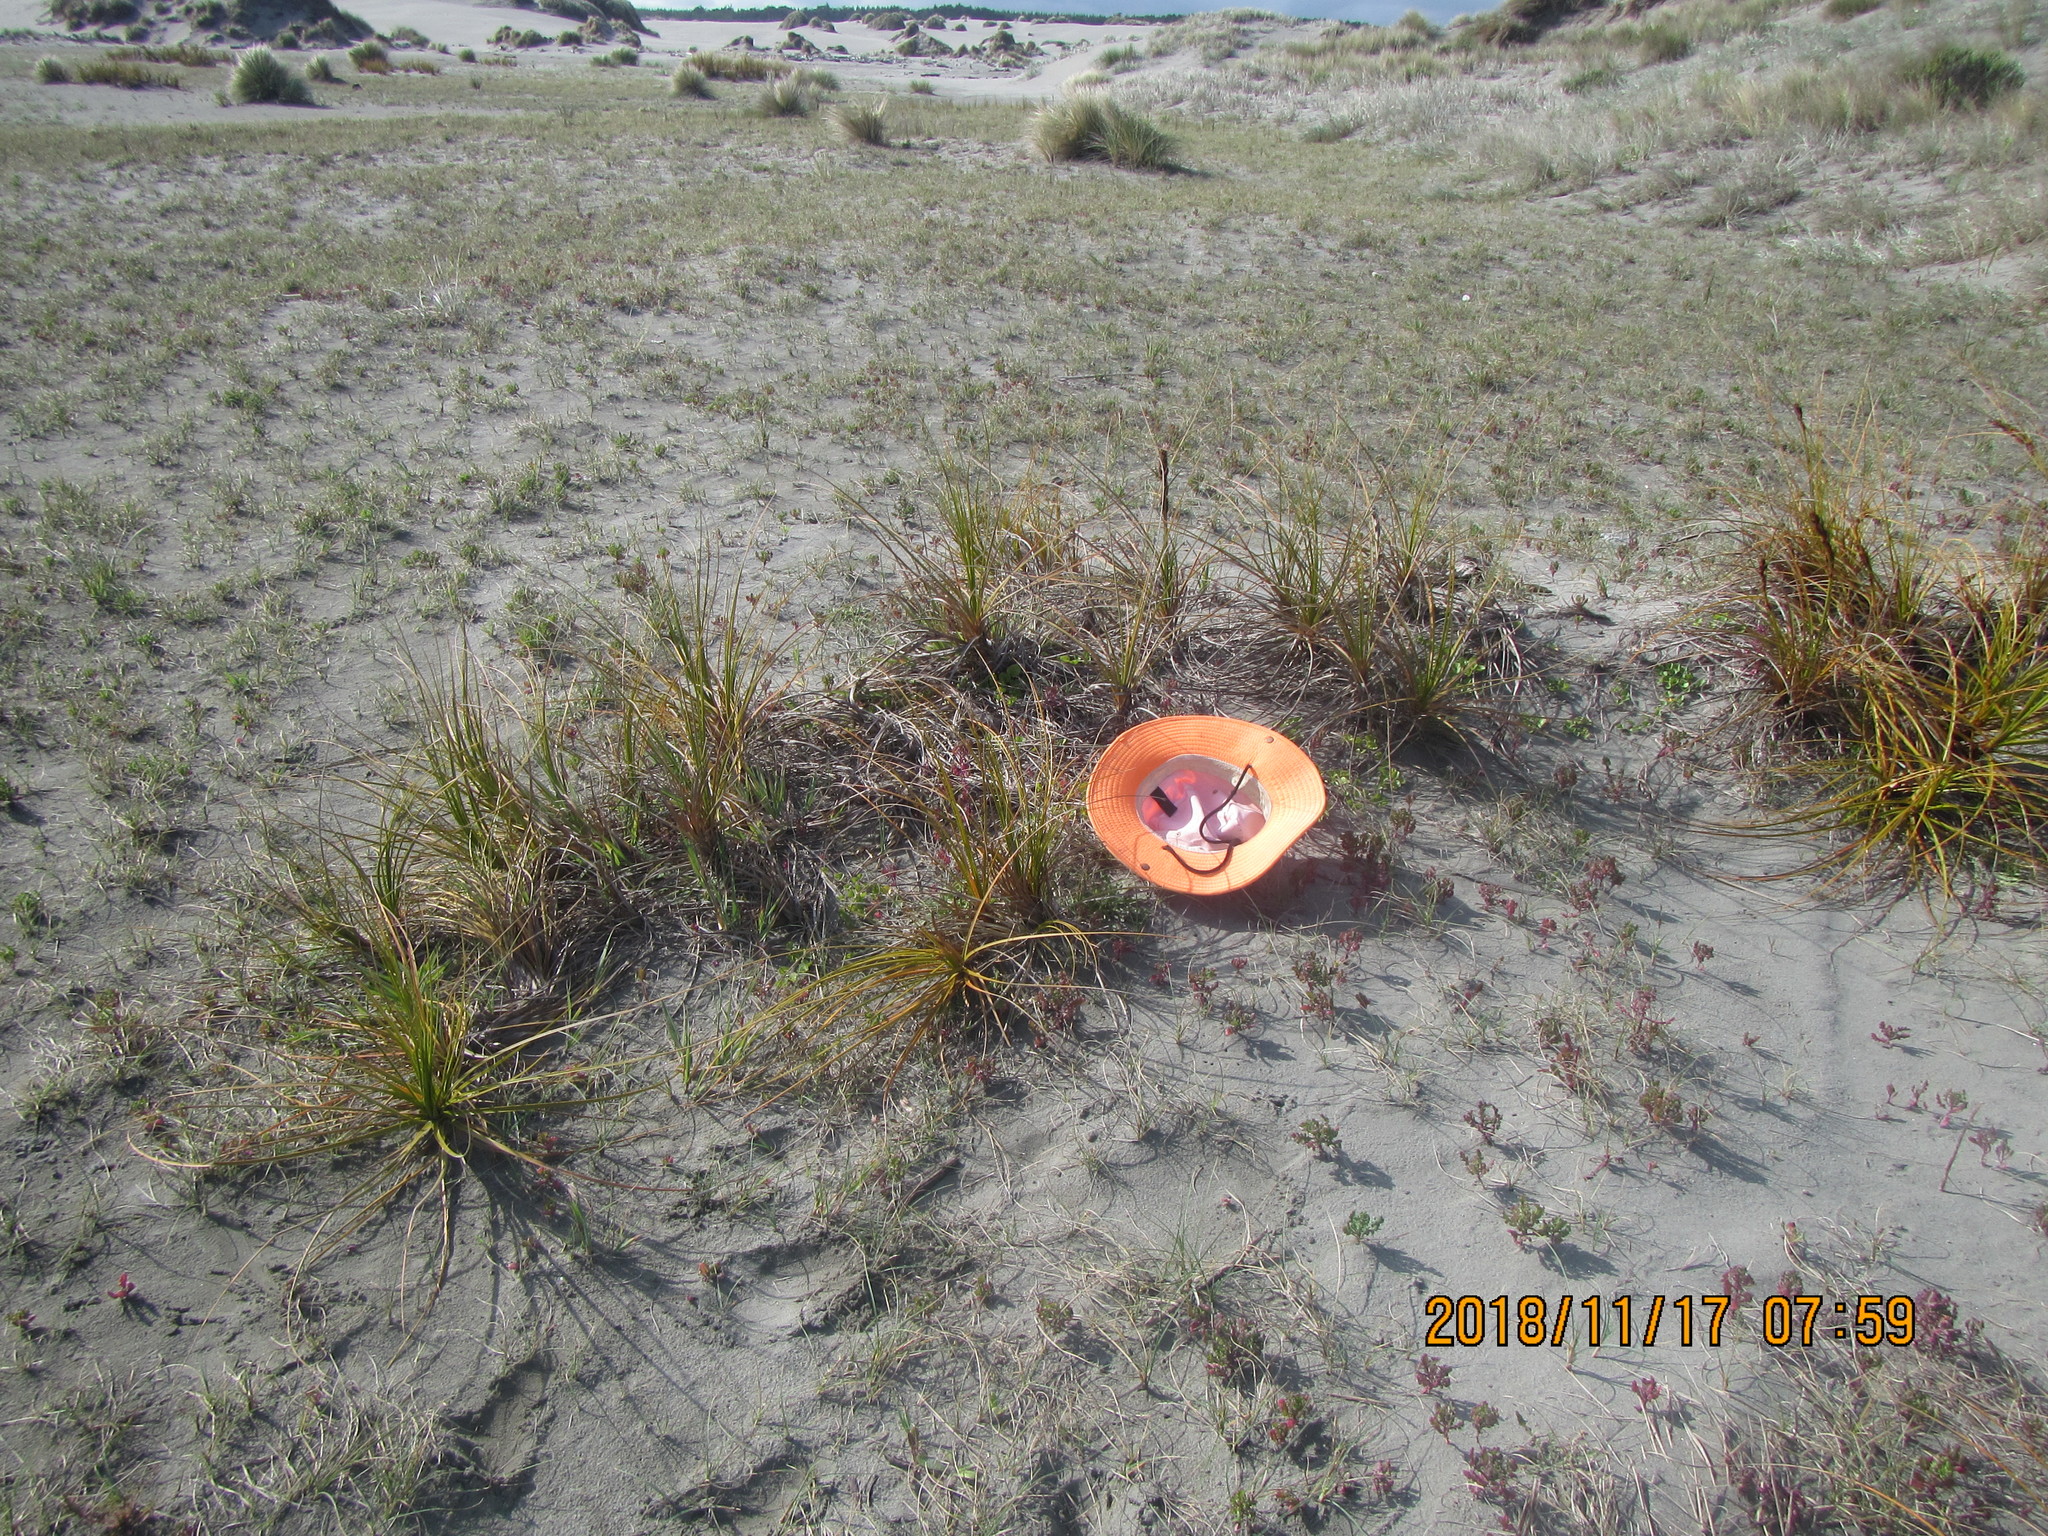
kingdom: Plantae
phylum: Tracheophyta
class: Magnoliopsida
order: Solanales
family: Convolvulaceae
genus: Calystegia
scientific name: Calystegia soldanella
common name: Sea bindweed
